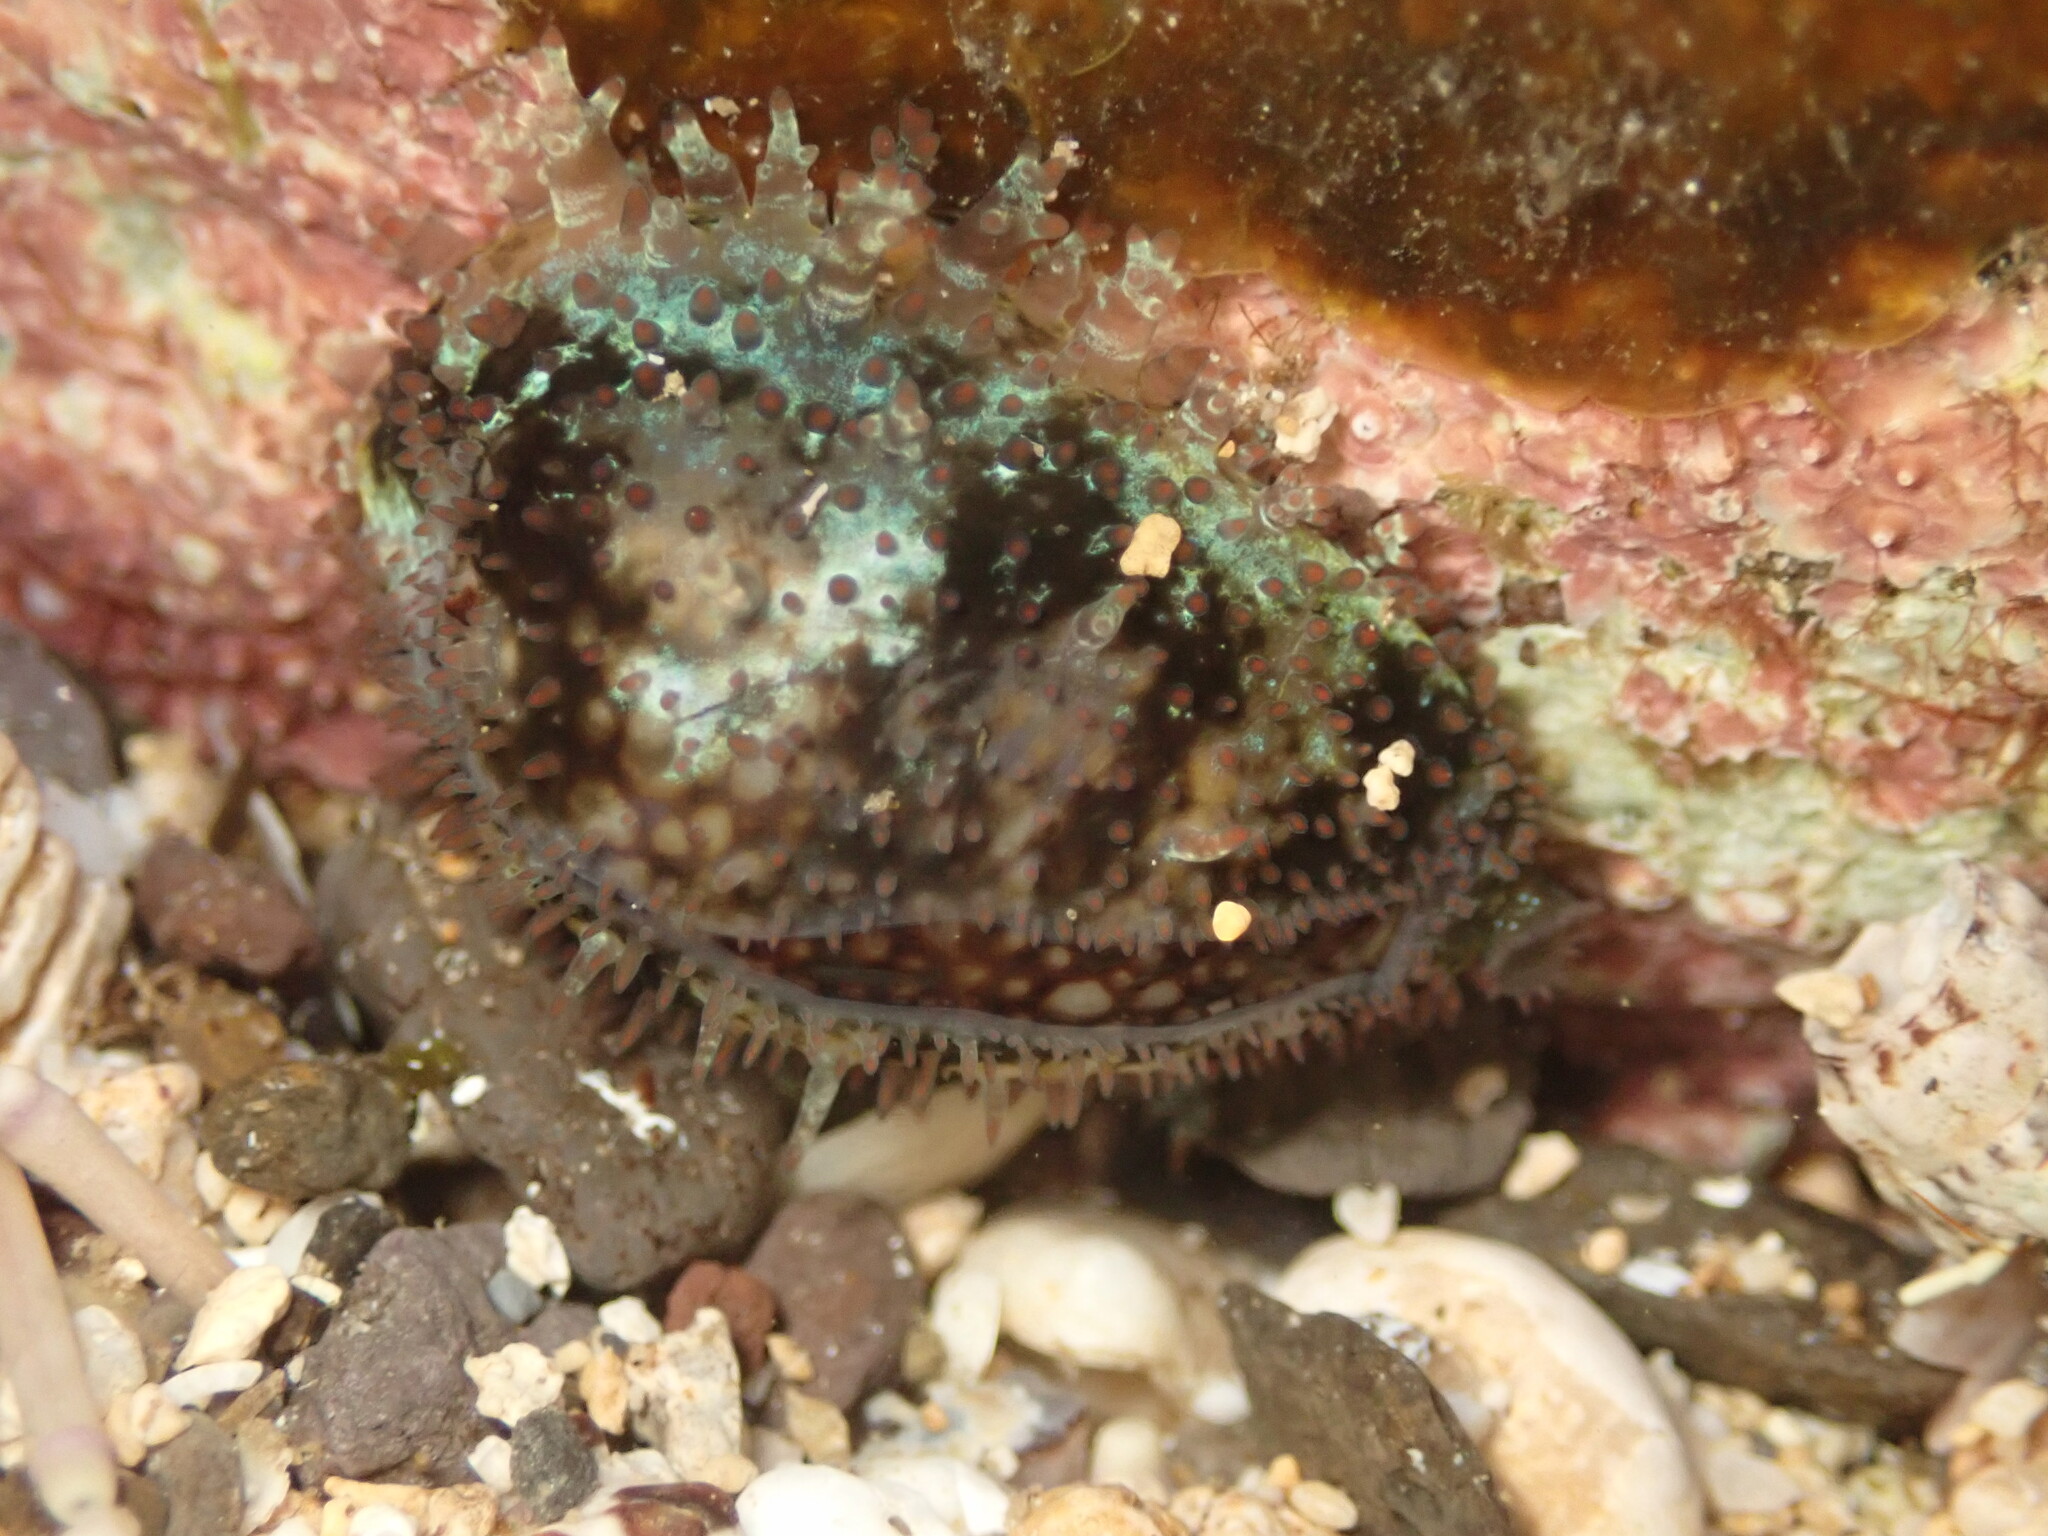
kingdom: Animalia
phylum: Mollusca
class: Gastropoda
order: Littorinimorpha
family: Cypraeidae
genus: Monetaria
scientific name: Monetaria caputophidii
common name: Snake's head cowry
